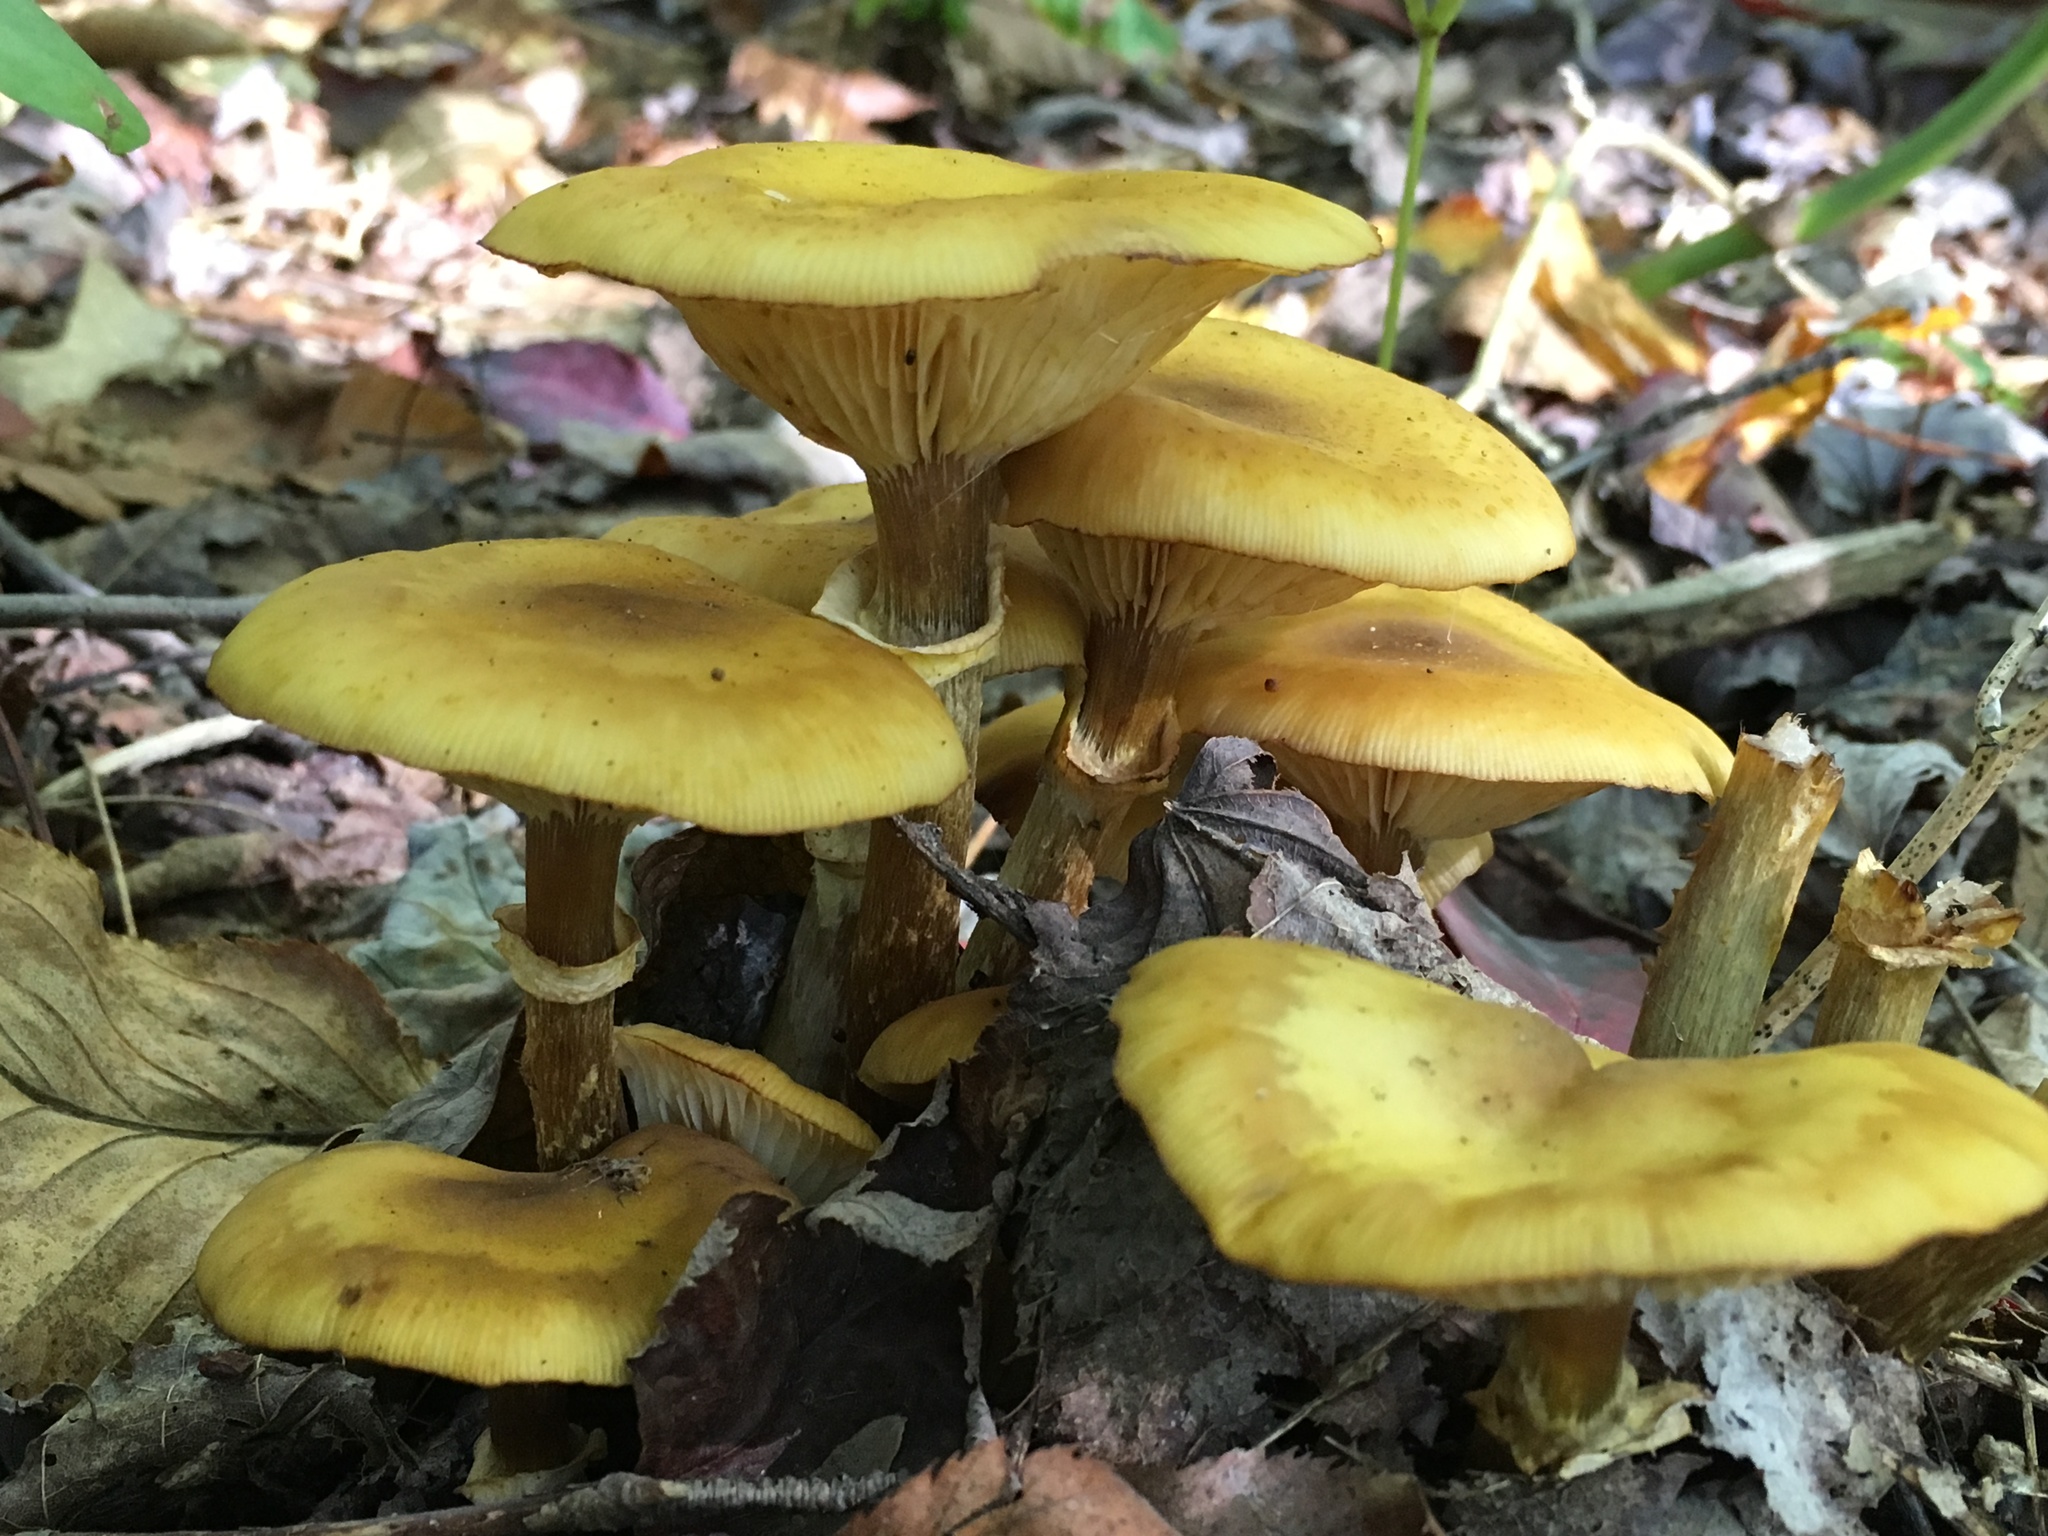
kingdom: Fungi
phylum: Basidiomycota
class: Agaricomycetes
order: Agaricales
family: Physalacriaceae
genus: Armillaria
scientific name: Armillaria mellea
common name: Honey fungus
